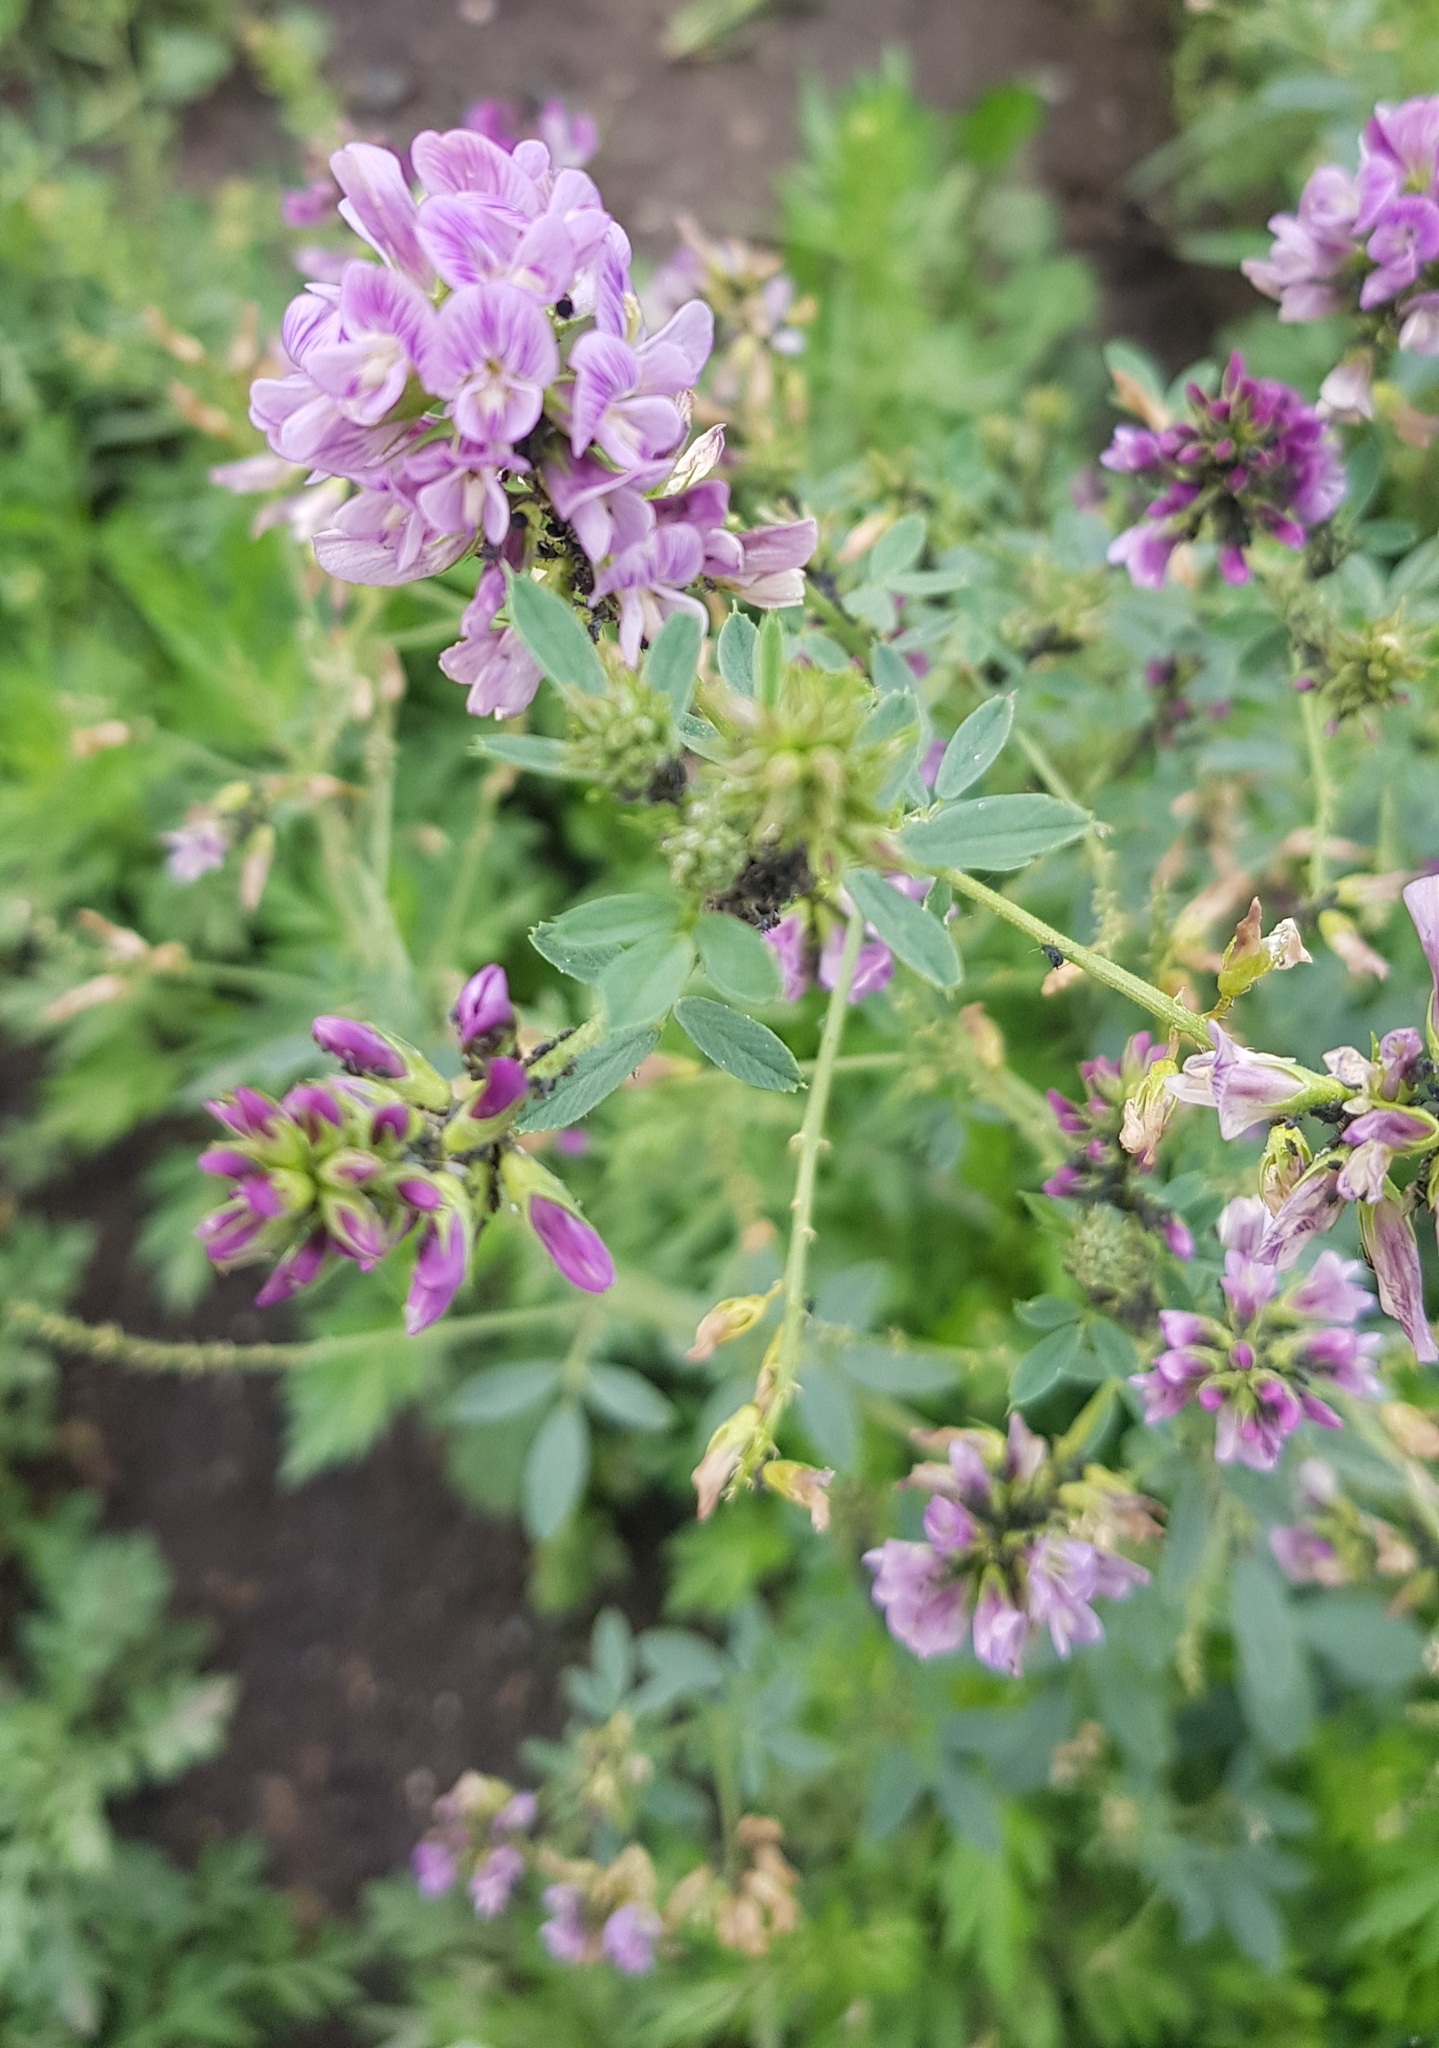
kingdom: Plantae
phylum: Tracheophyta
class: Magnoliopsida
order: Fabales
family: Fabaceae
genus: Medicago
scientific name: Medicago sativa
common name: Alfalfa
